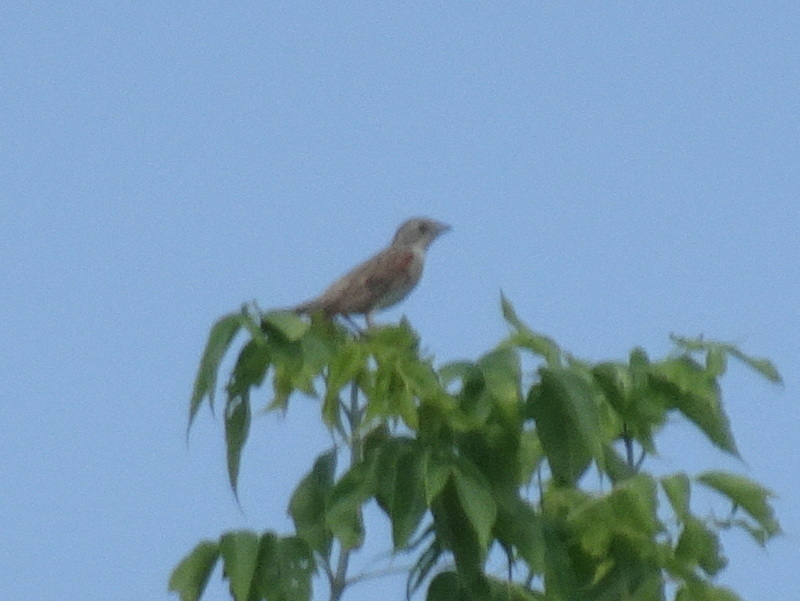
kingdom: Animalia
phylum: Chordata
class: Aves
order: Passeriformes
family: Cardinalidae
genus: Spiza
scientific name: Spiza americana
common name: Dickcissel
